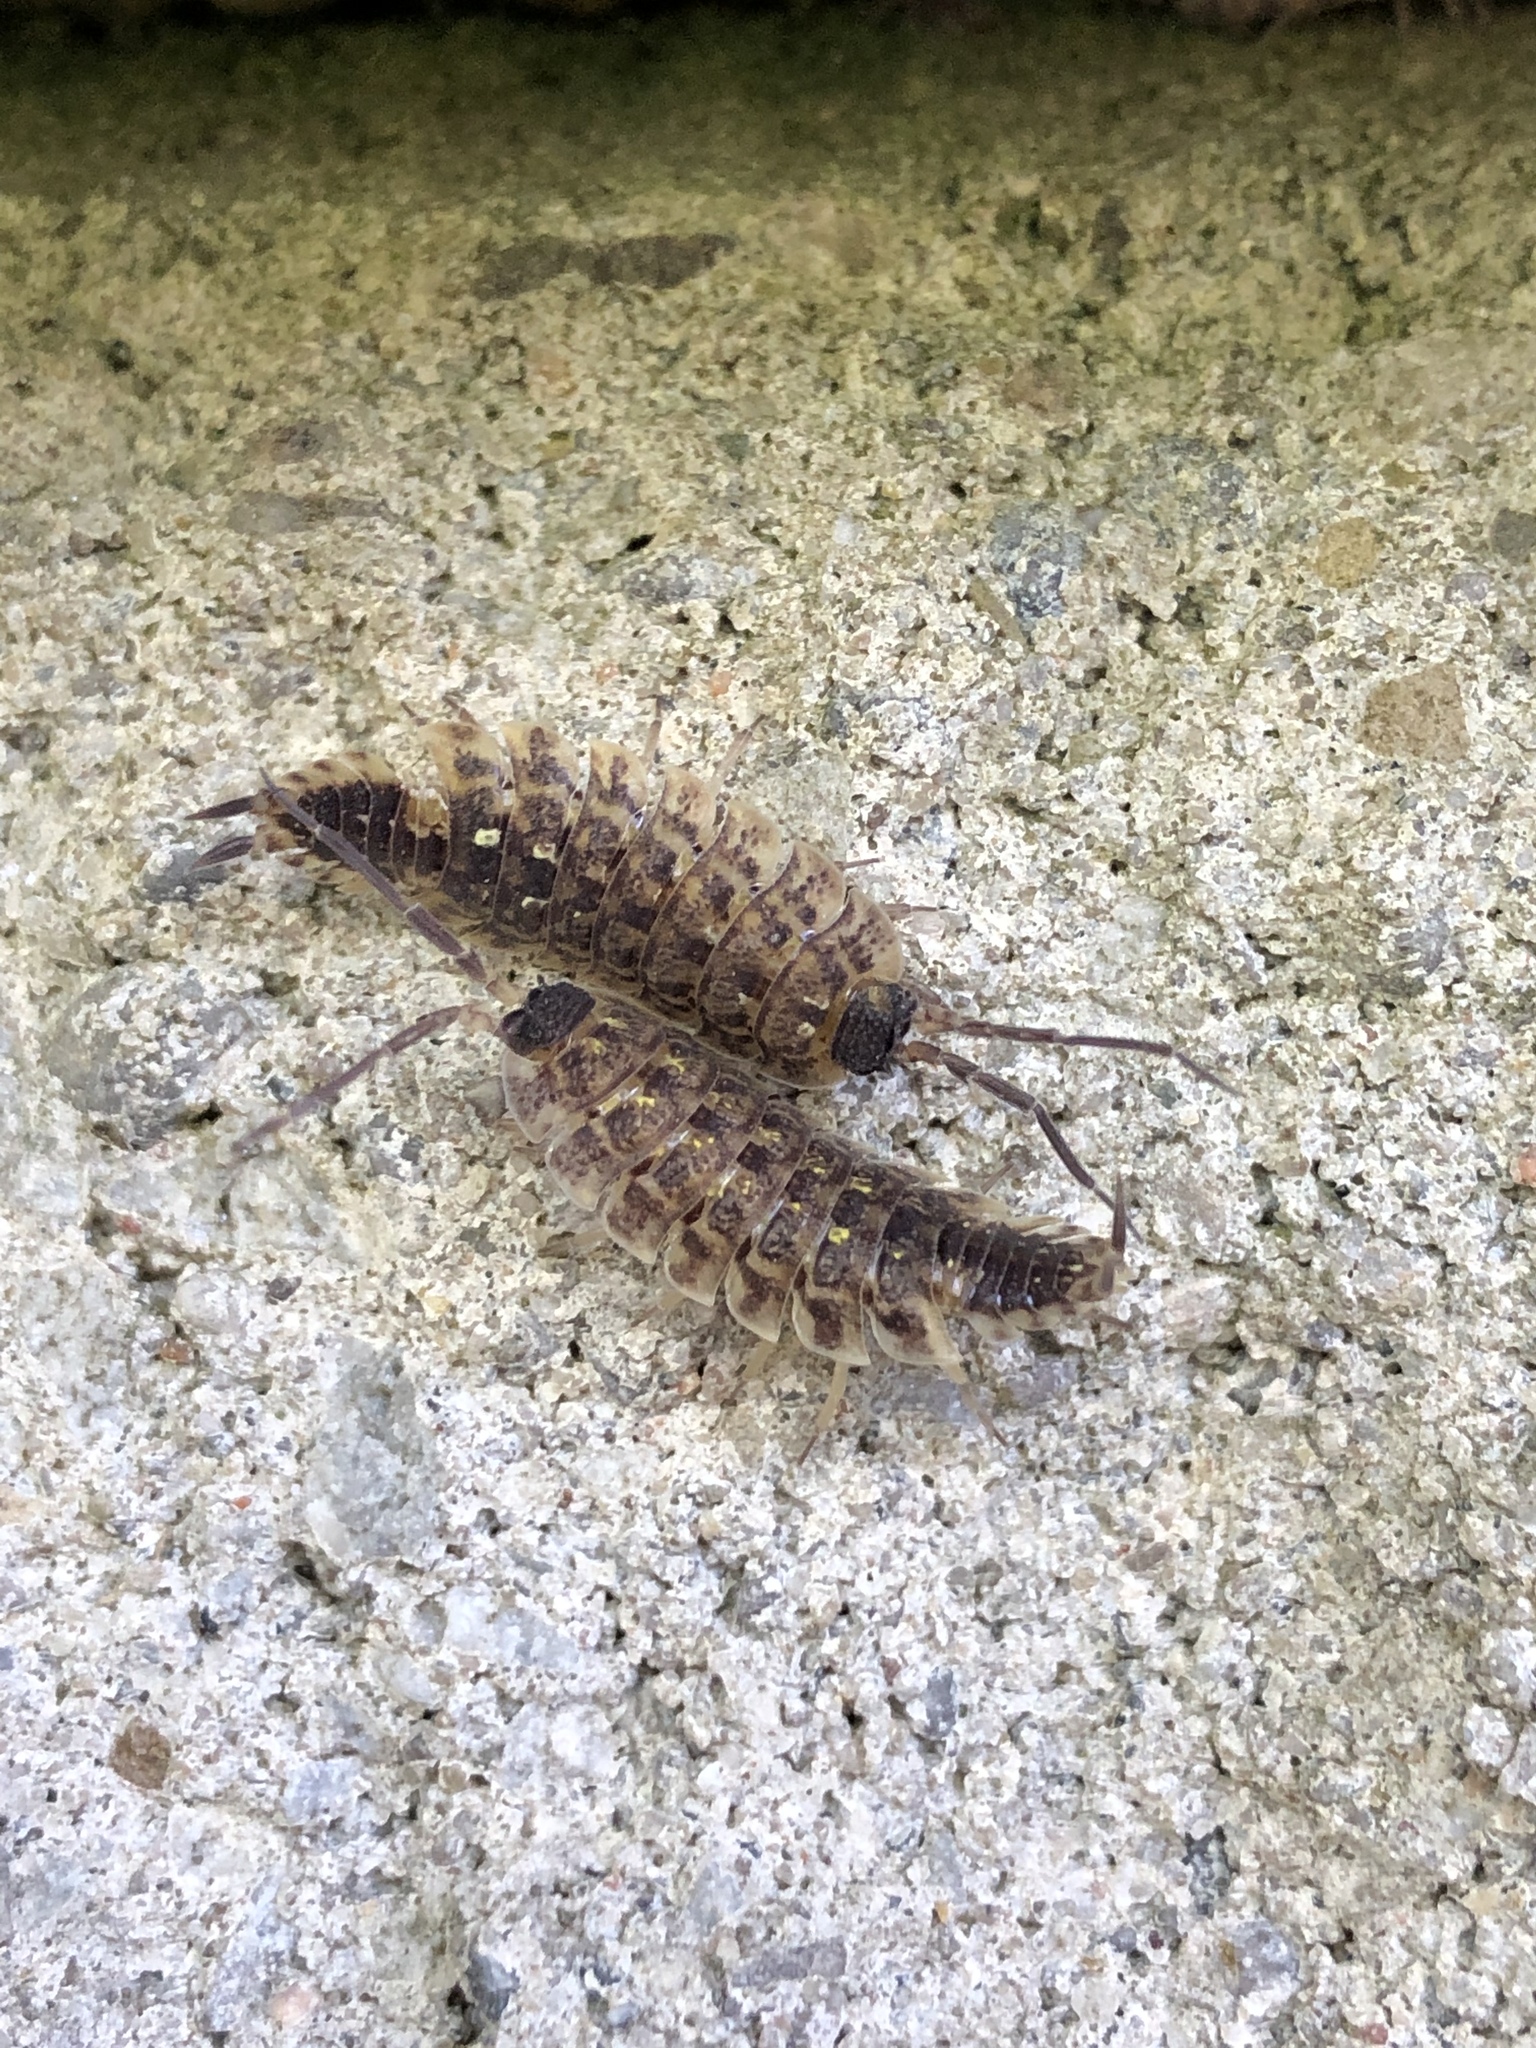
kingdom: Animalia
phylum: Arthropoda
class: Malacostraca
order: Isopoda
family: Porcellionidae
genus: Porcellio
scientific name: Porcellio spinicornis
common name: Painted woodlouse
